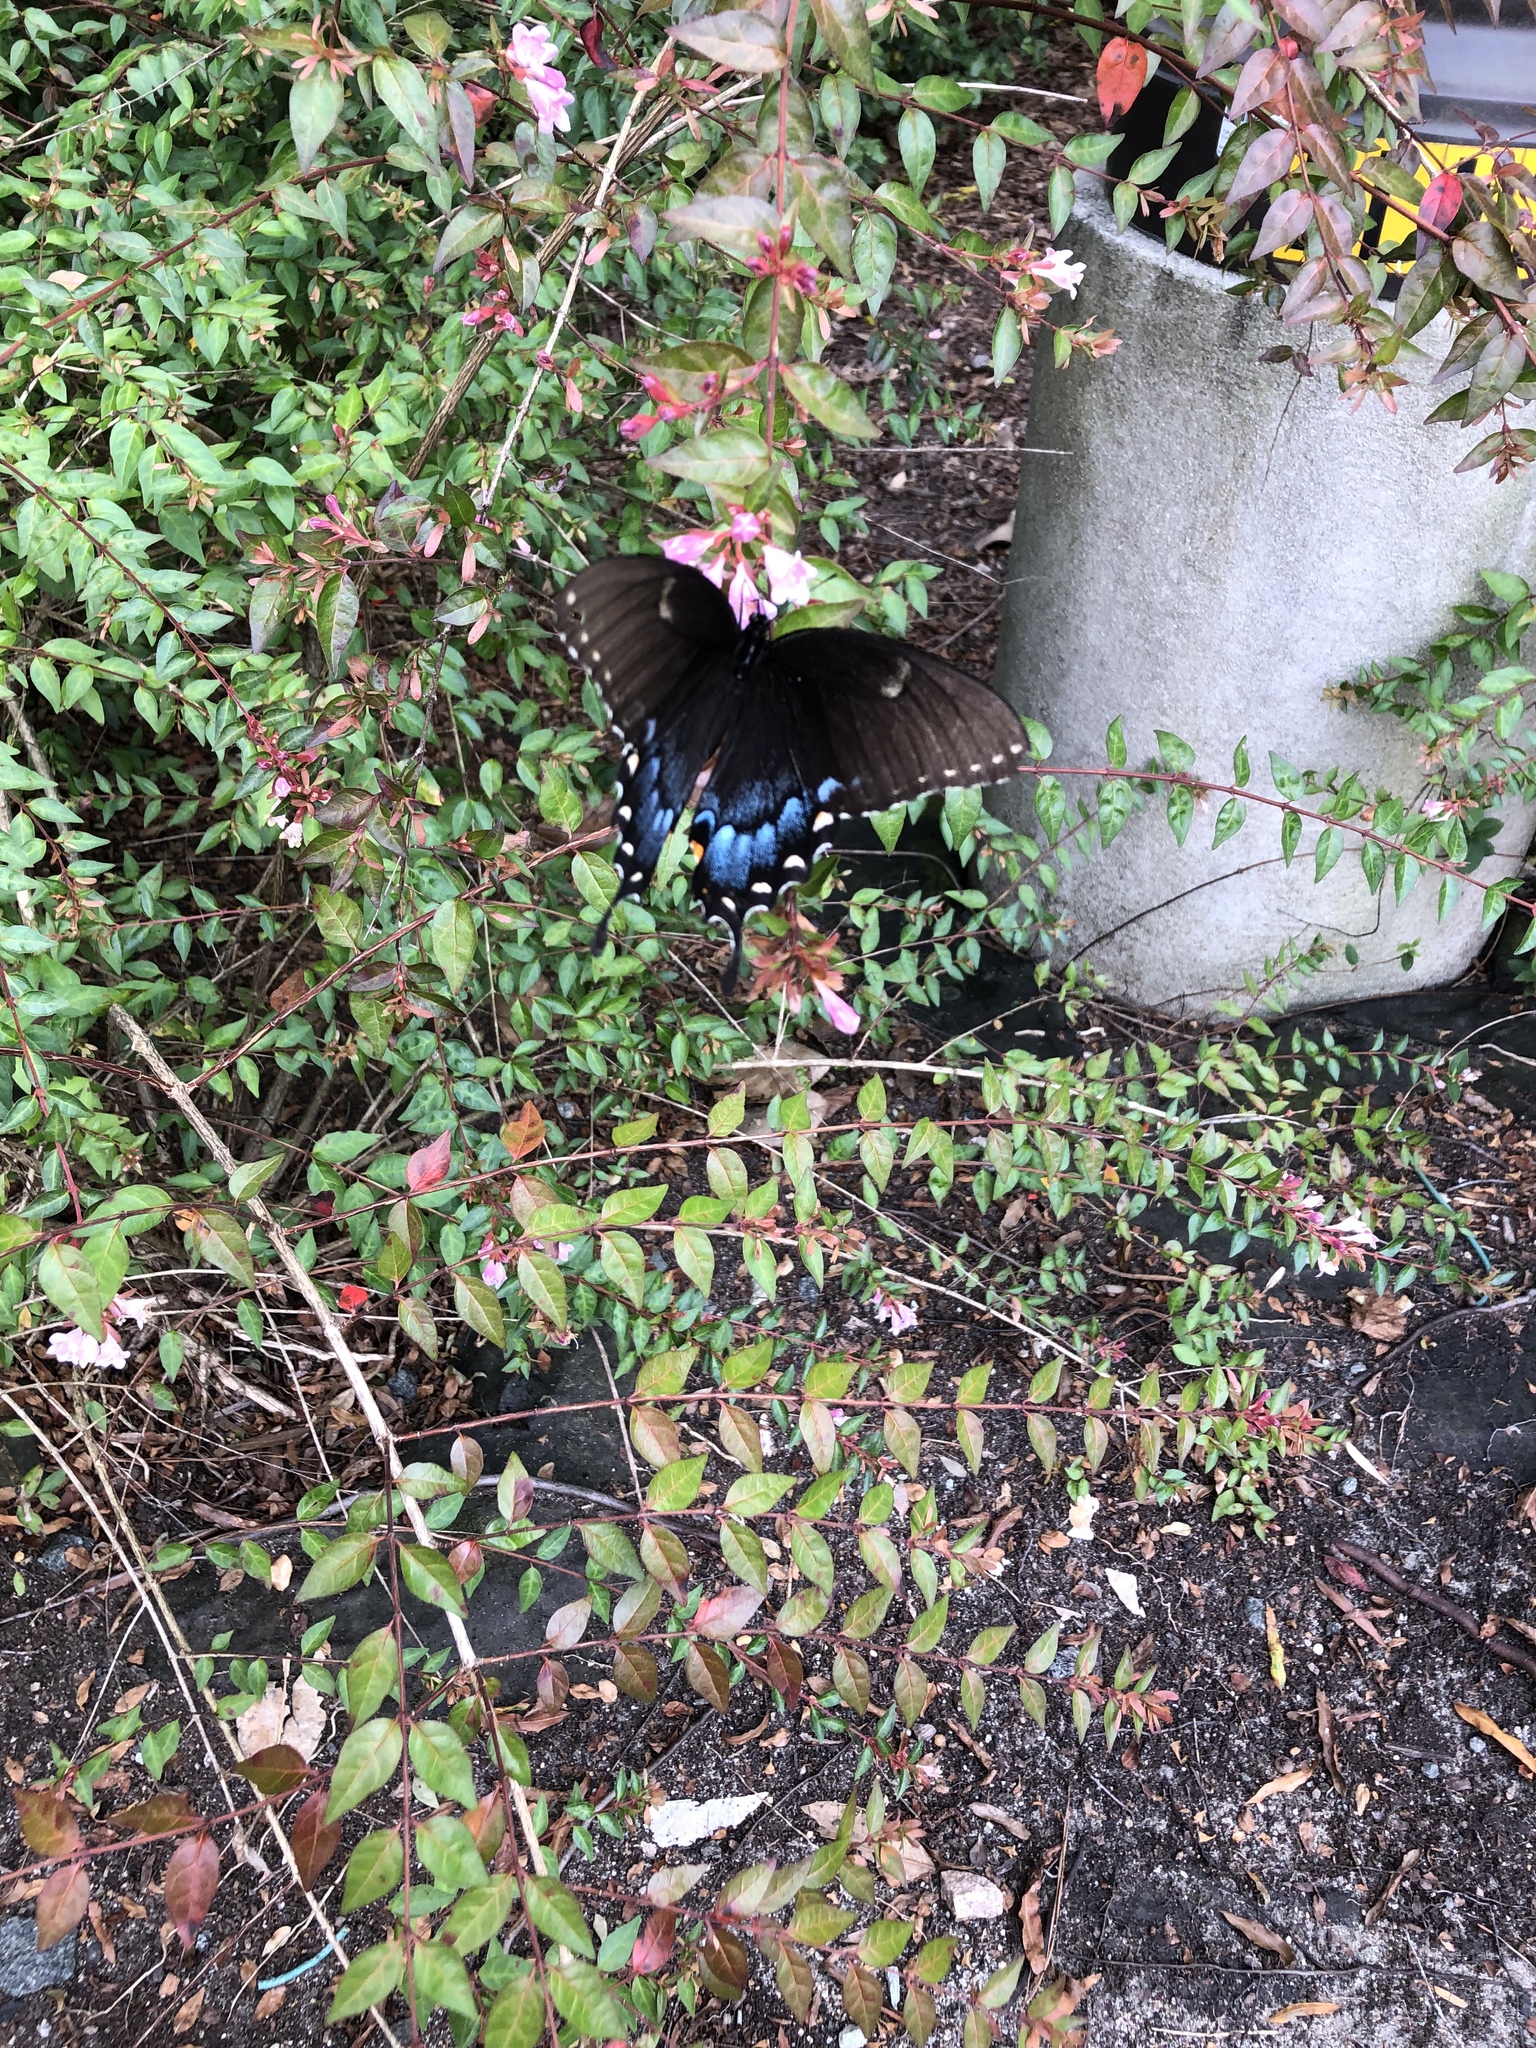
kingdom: Animalia
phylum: Arthropoda
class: Insecta
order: Lepidoptera
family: Papilionidae
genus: Papilio
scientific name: Papilio glaucus
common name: Tiger swallowtail
